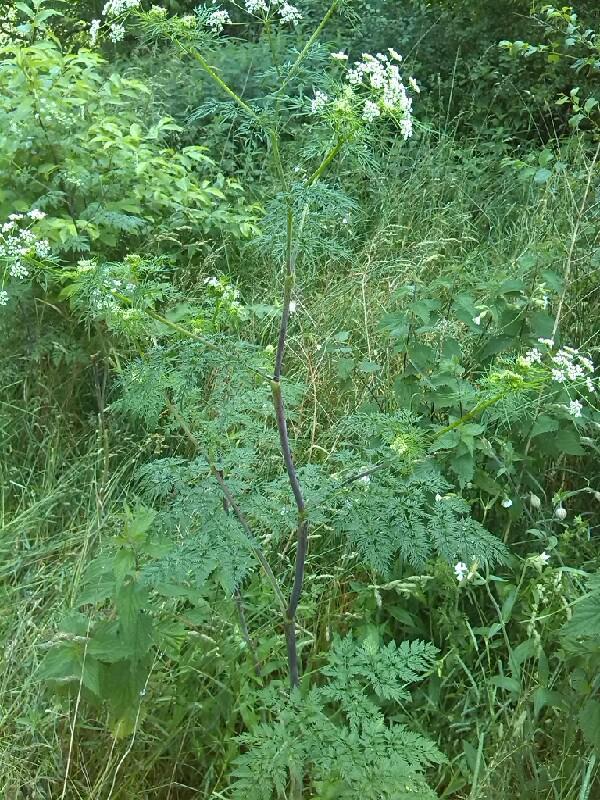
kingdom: Plantae
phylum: Tracheophyta
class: Magnoliopsida
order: Apiales
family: Apiaceae
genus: Chaerophyllum
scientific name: Chaerophyllum bulbosum
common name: Bulbous chervil
